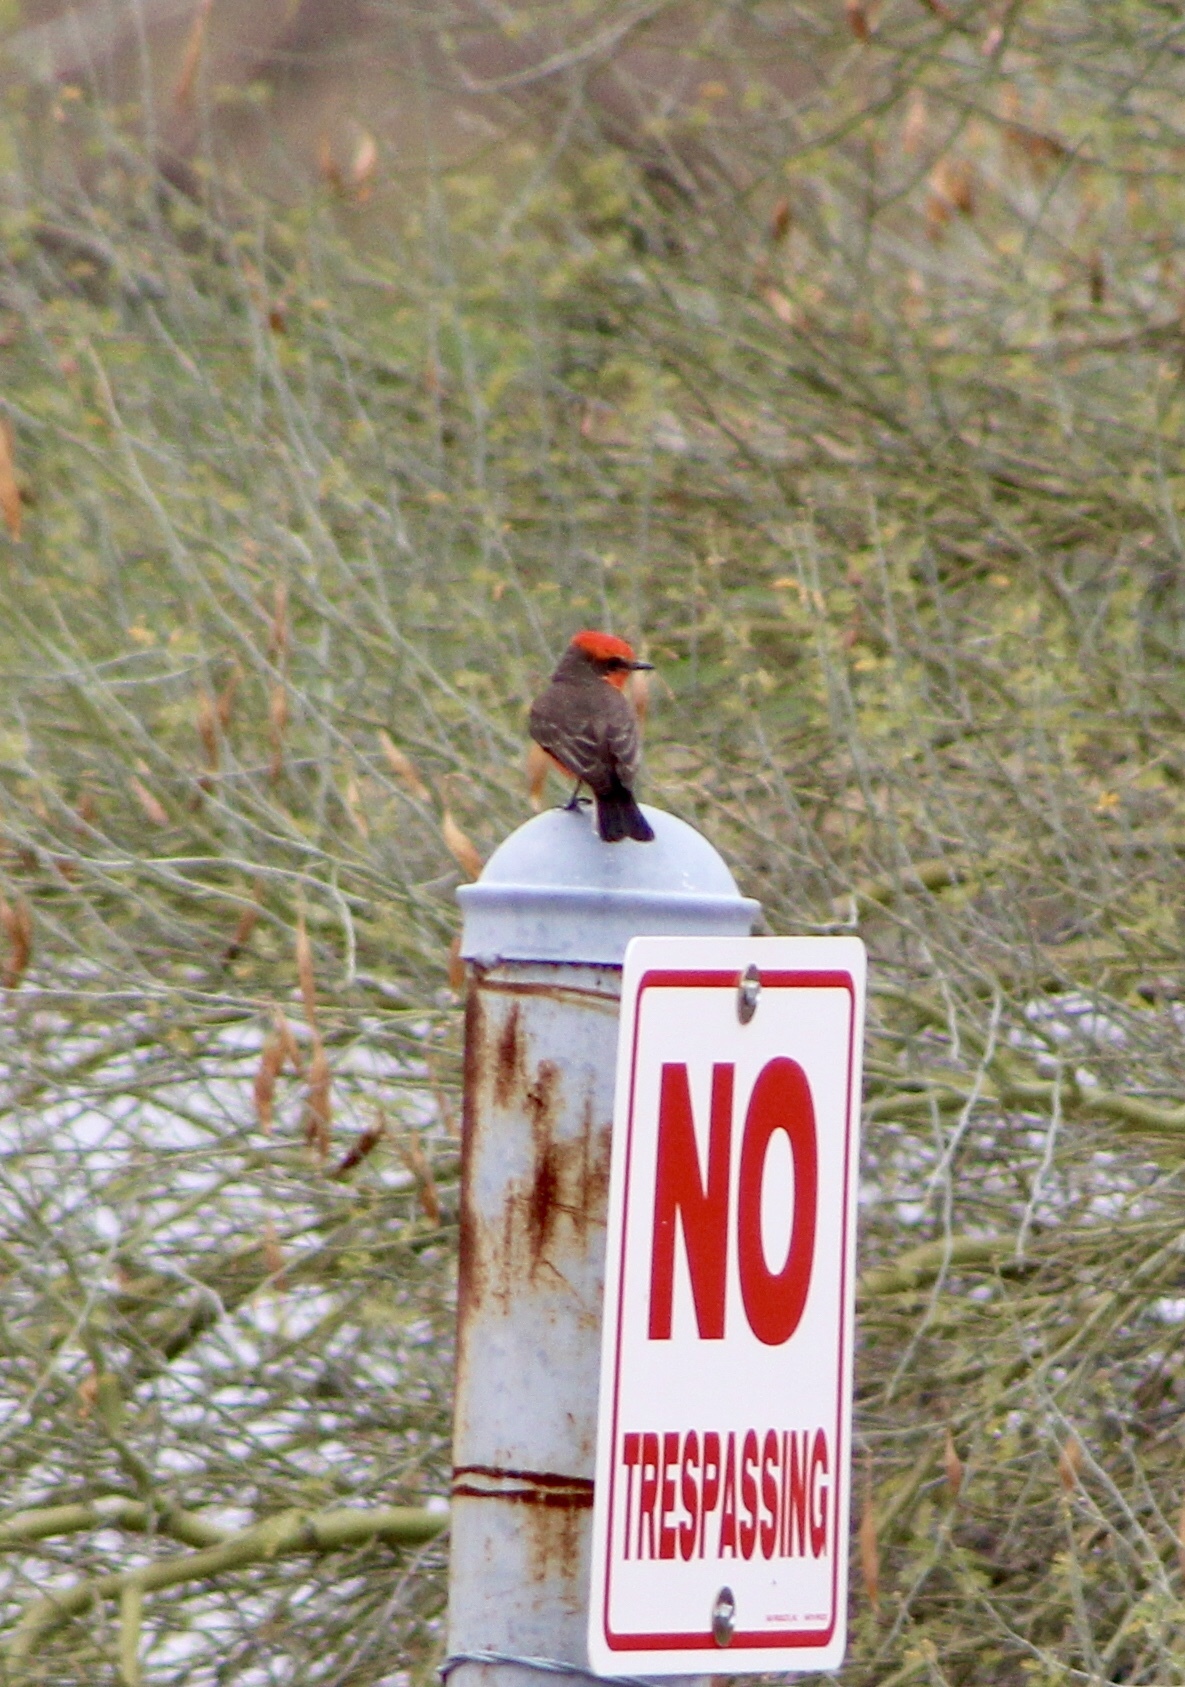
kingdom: Animalia
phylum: Chordata
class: Aves
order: Passeriformes
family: Tyrannidae
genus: Pyrocephalus
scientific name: Pyrocephalus rubinus
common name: Vermilion flycatcher
